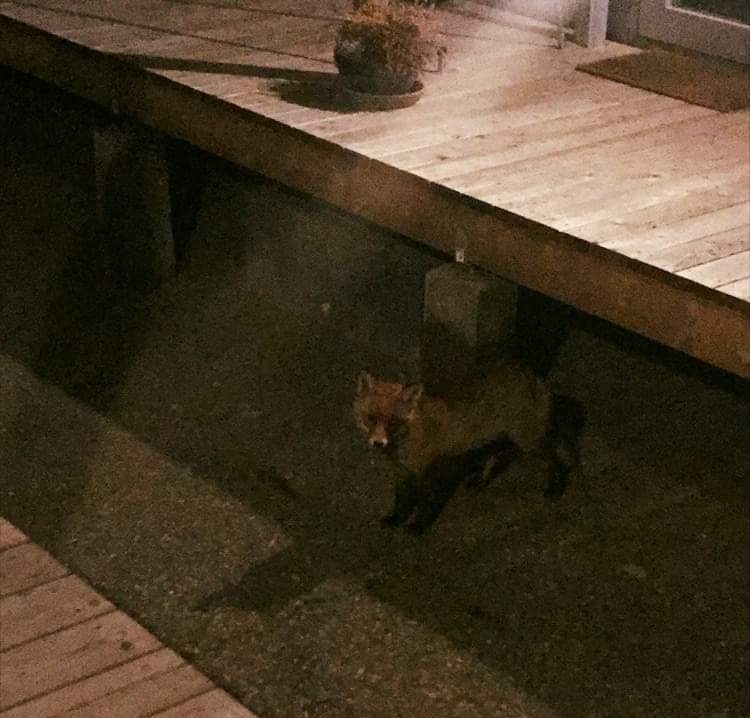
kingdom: Animalia
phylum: Chordata
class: Mammalia
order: Carnivora
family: Canidae
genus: Vulpes
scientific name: Vulpes vulpes
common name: Red fox
